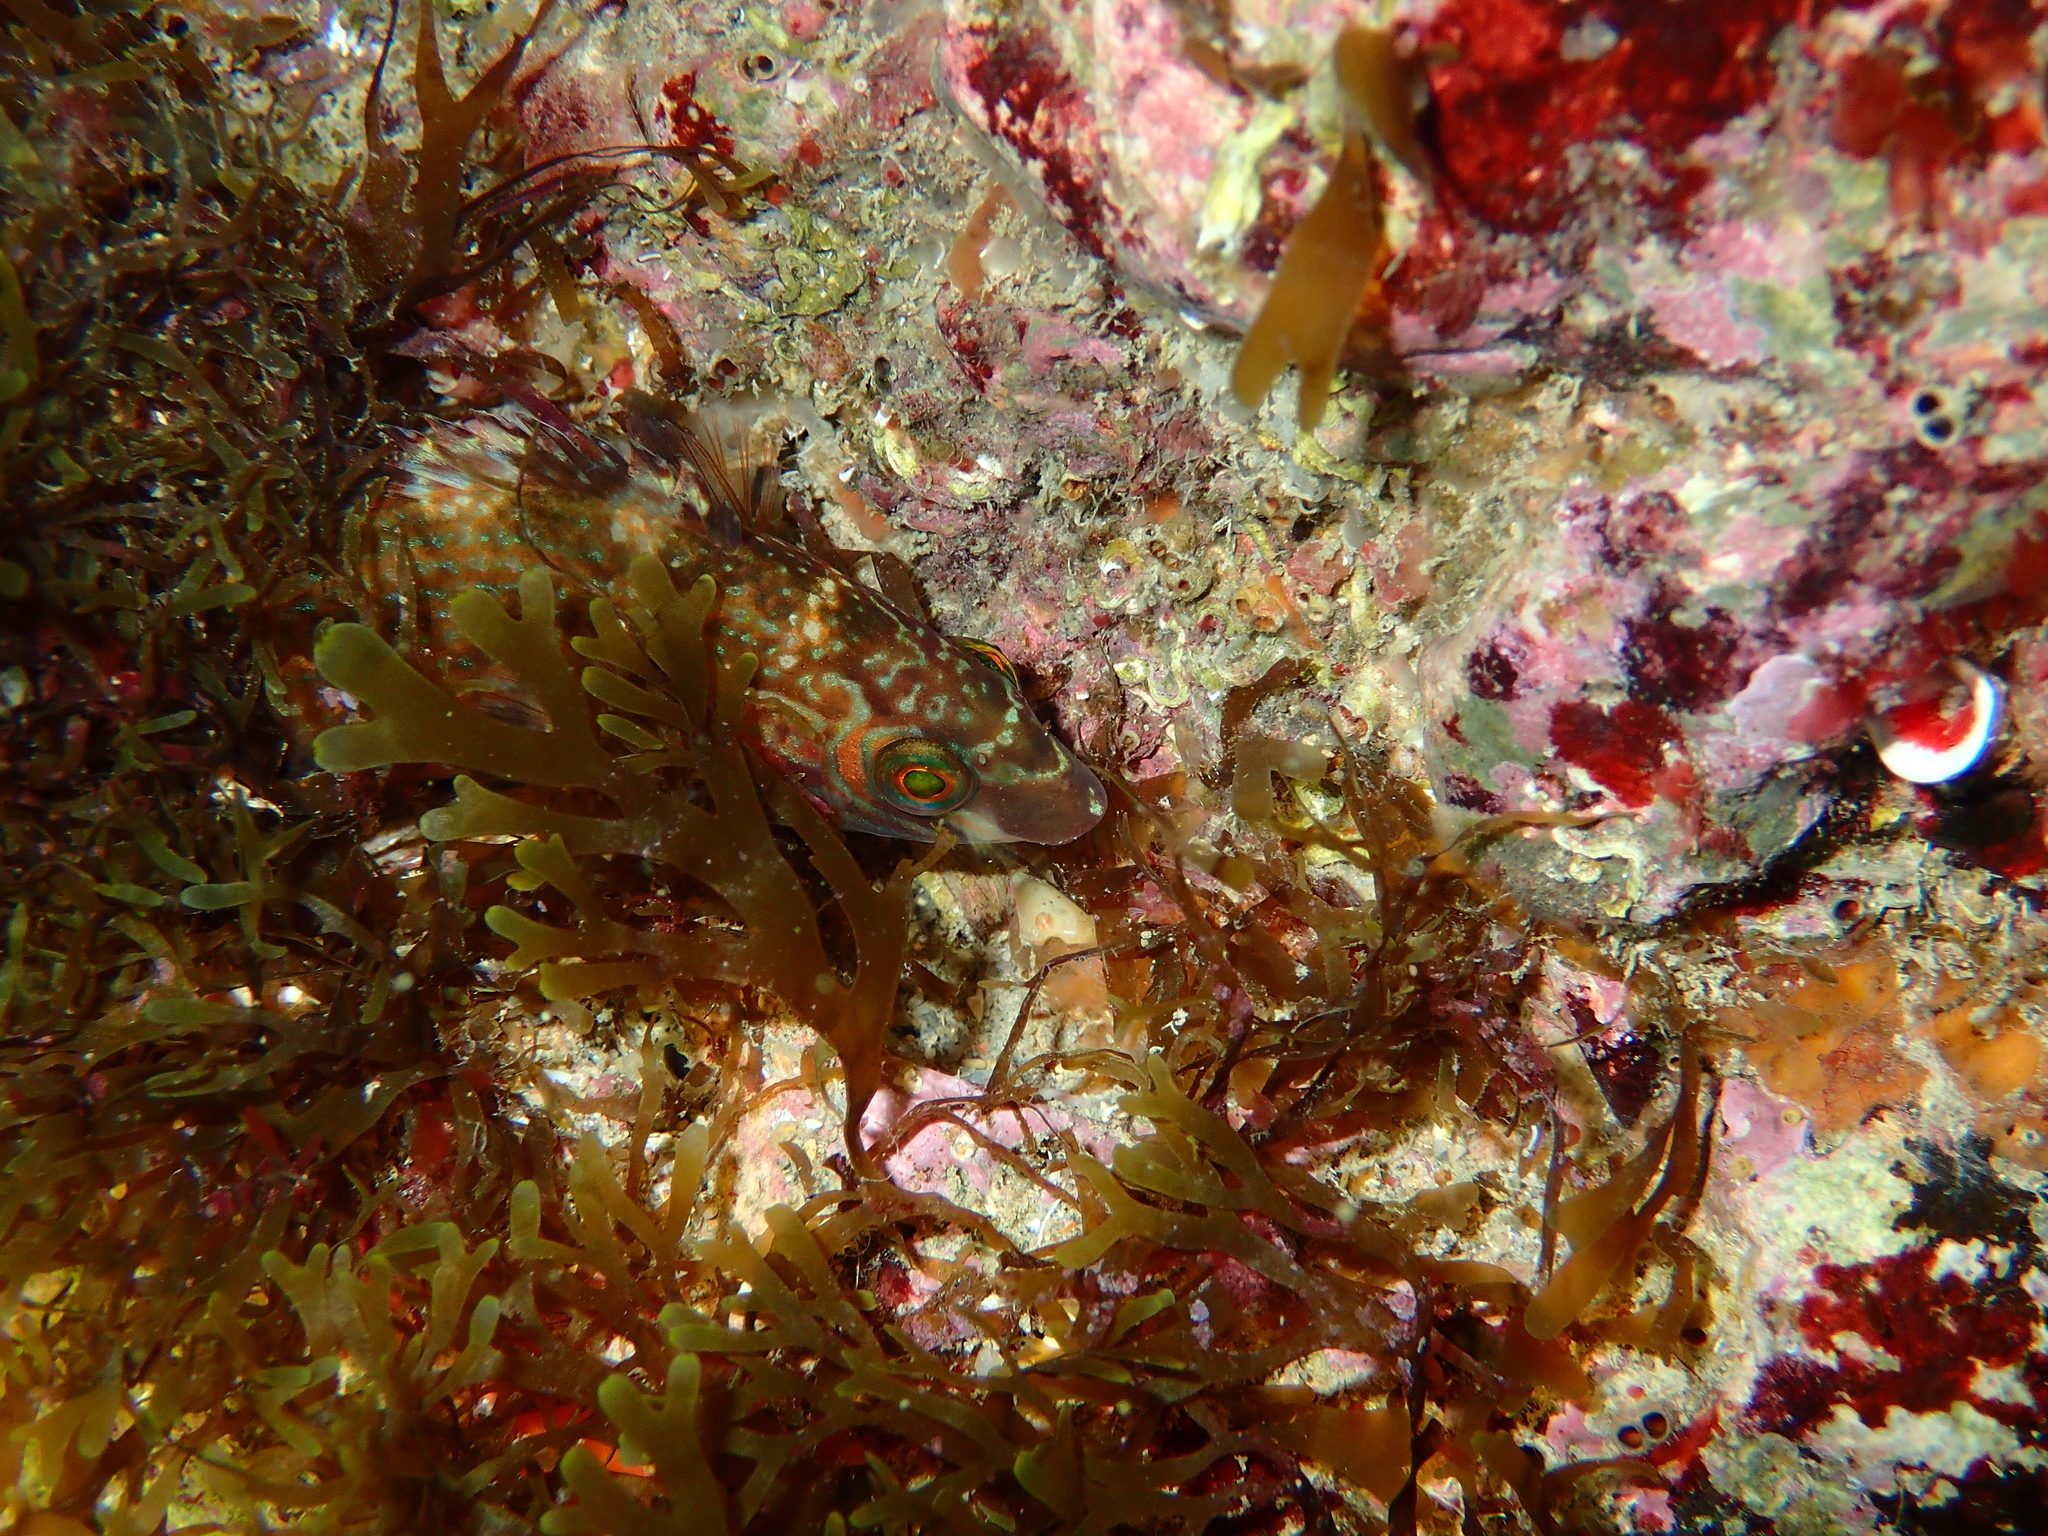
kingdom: Animalia
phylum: Chordata
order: Perciformes
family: Labridae
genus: Symphodus
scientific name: Symphodus melops
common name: Corkwing
